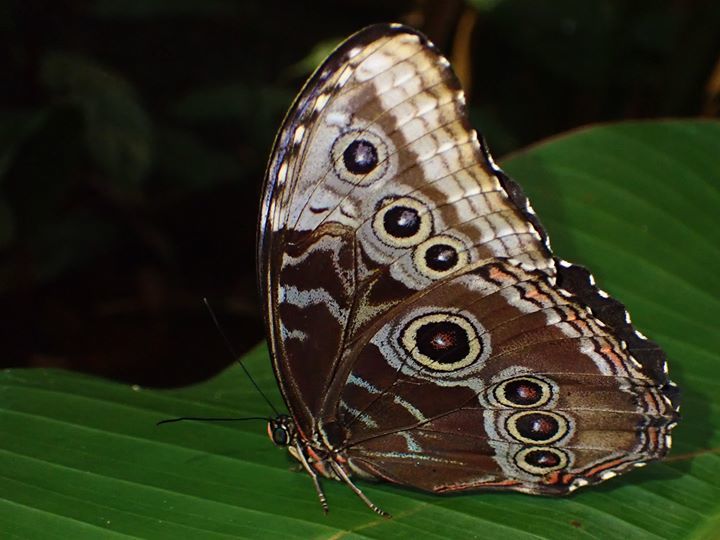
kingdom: Animalia
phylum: Arthropoda
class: Insecta
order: Lepidoptera
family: Nymphalidae
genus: Morpho
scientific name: Morpho helenor
